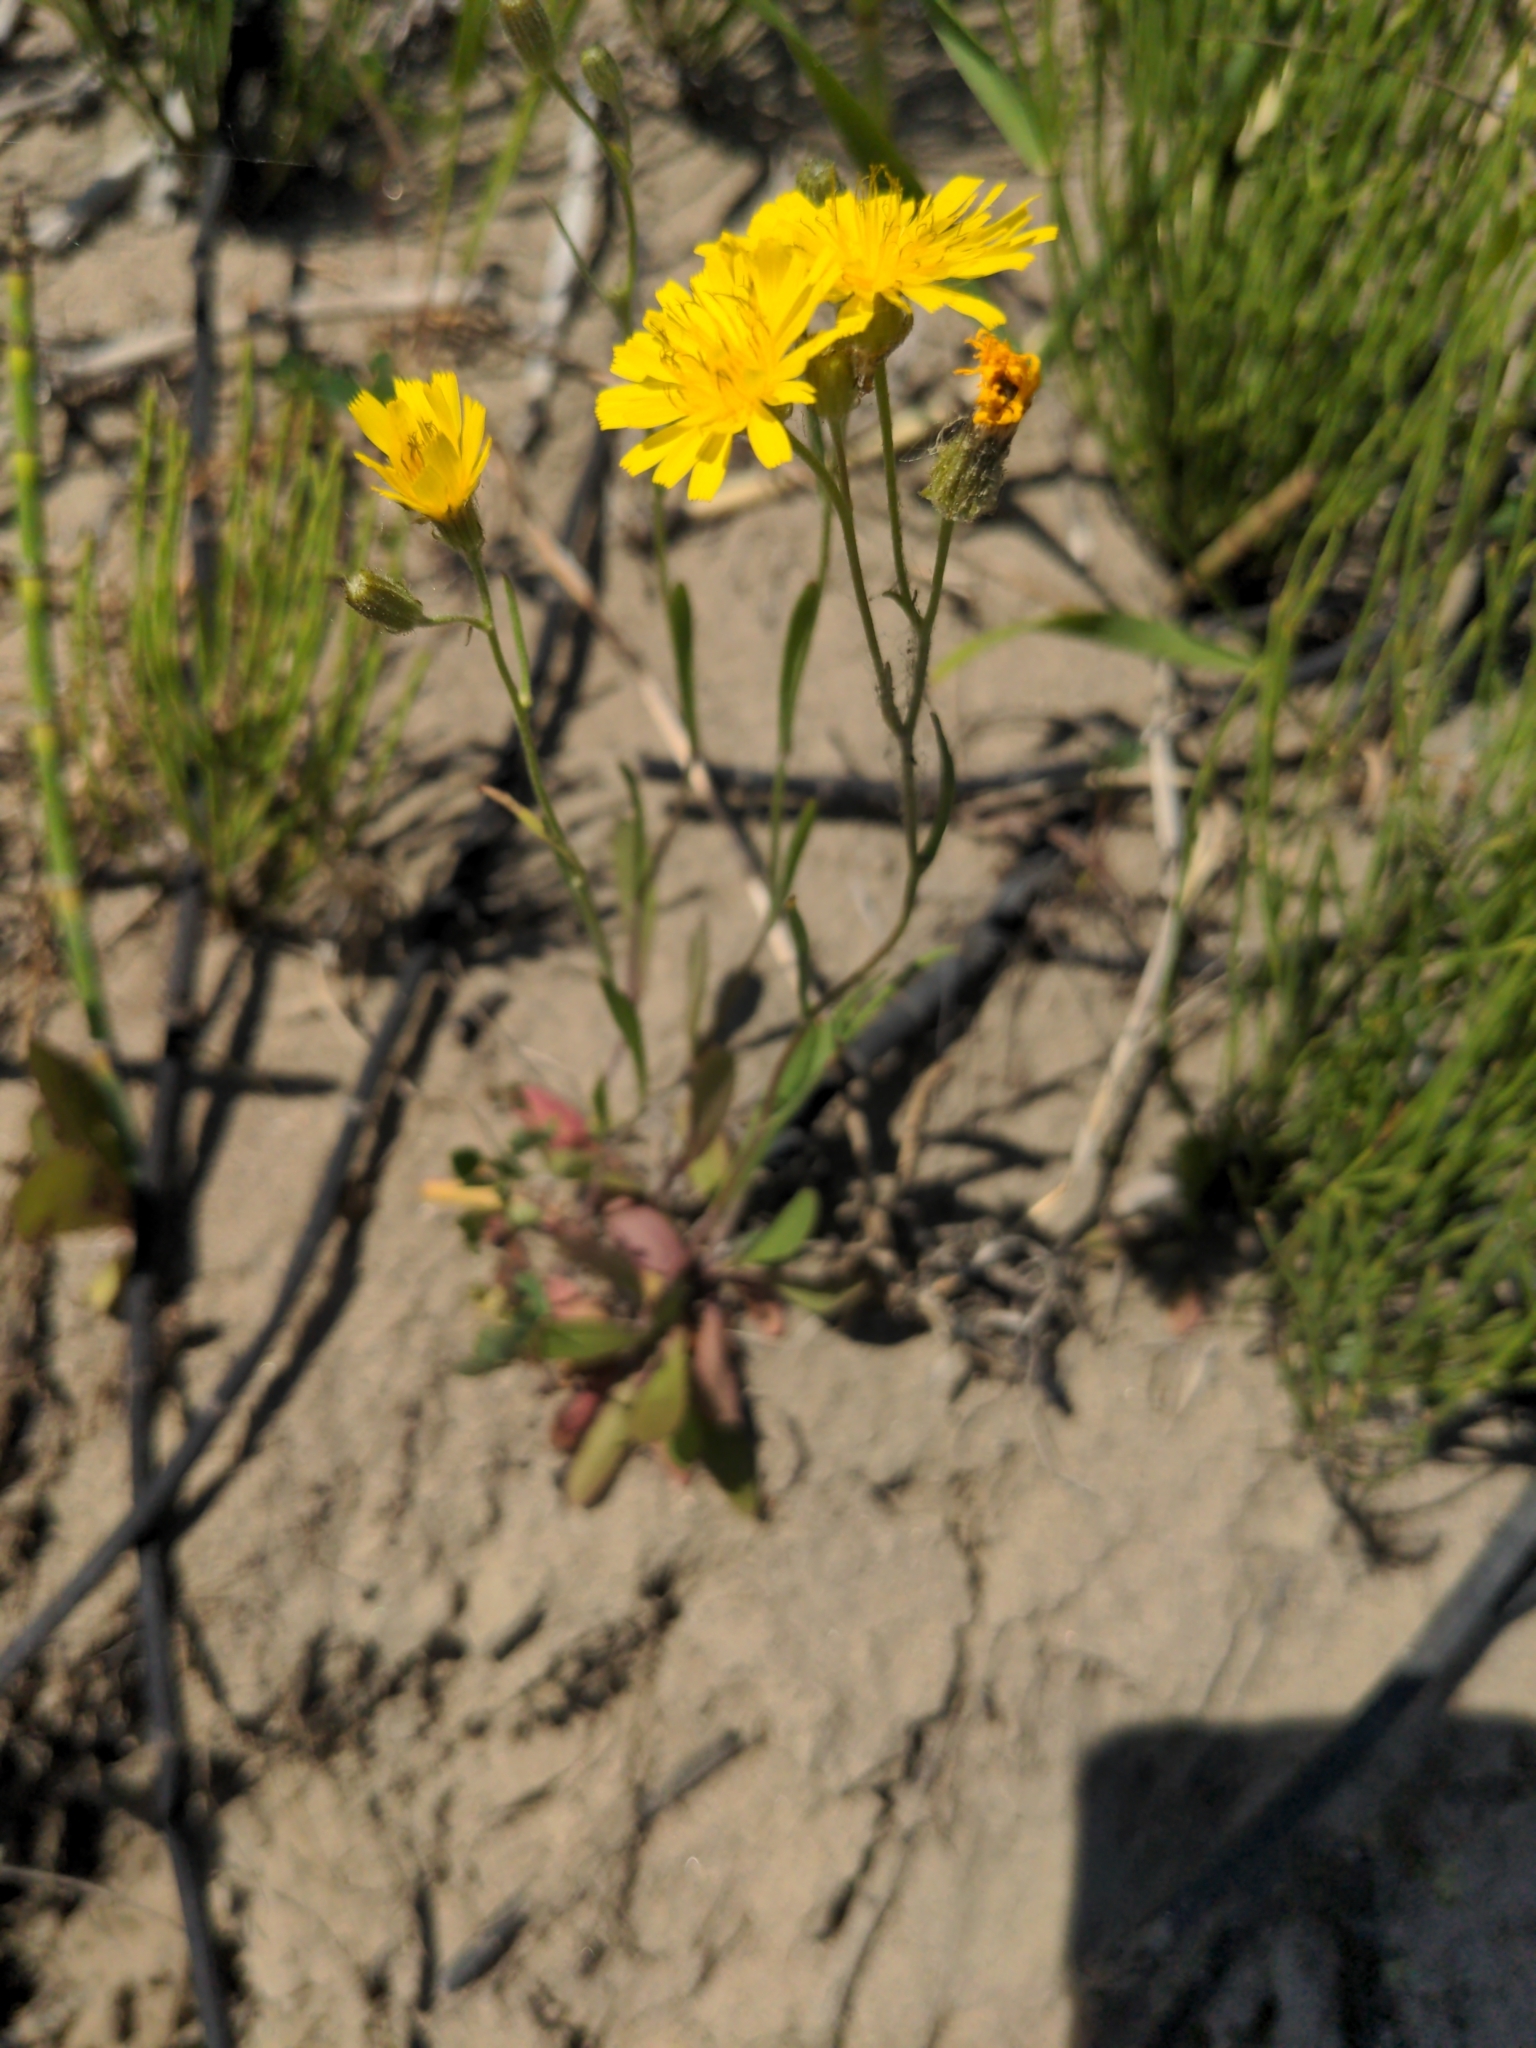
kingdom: Plantae
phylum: Tracheophyta
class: Magnoliopsida
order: Asterales
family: Asteraceae
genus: Crepis
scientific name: Crepis tectorum
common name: Narrow-leaved hawk's-beard
